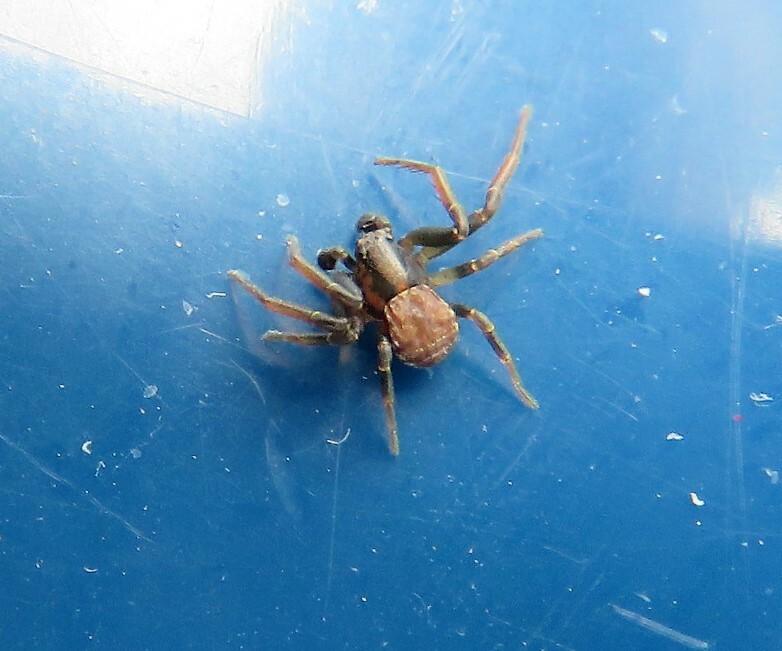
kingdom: Animalia
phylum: Arthropoda
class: Arachnida
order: Araneae
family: Thomisidae
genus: Ozyptila
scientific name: Ozyptila
